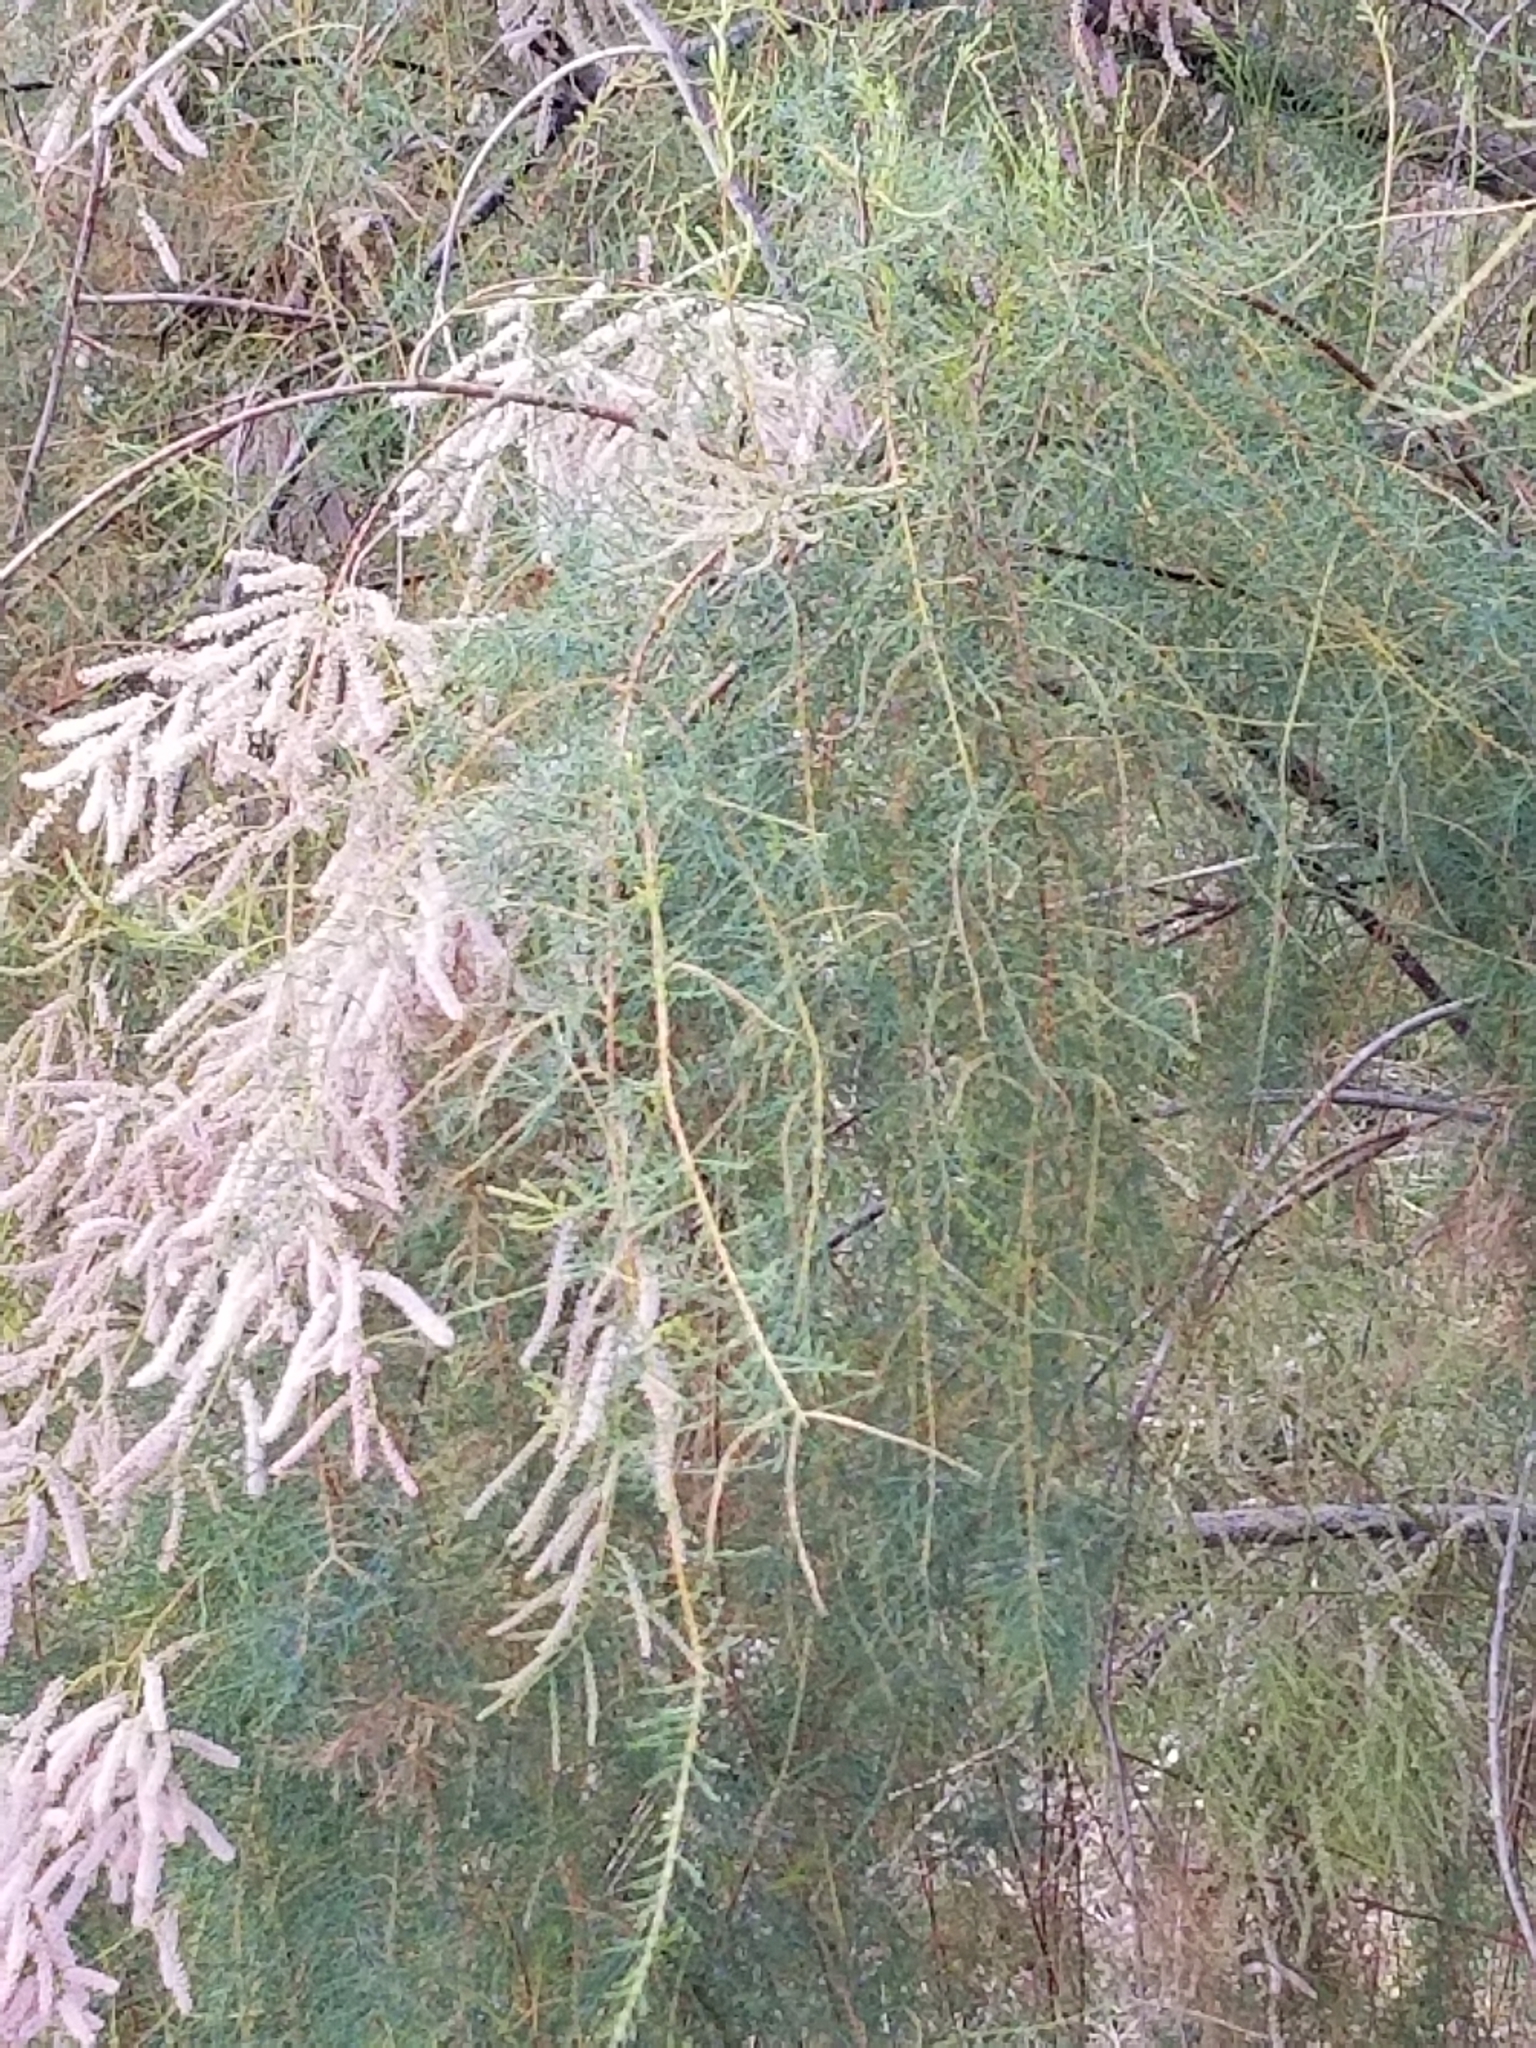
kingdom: Plantae
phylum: Tracheophyta
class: Magnoliopsida
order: Caryophyllales
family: Tamaricaceae
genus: Tamarix
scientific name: Tamarix ramosissima
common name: Pink tamarisk
